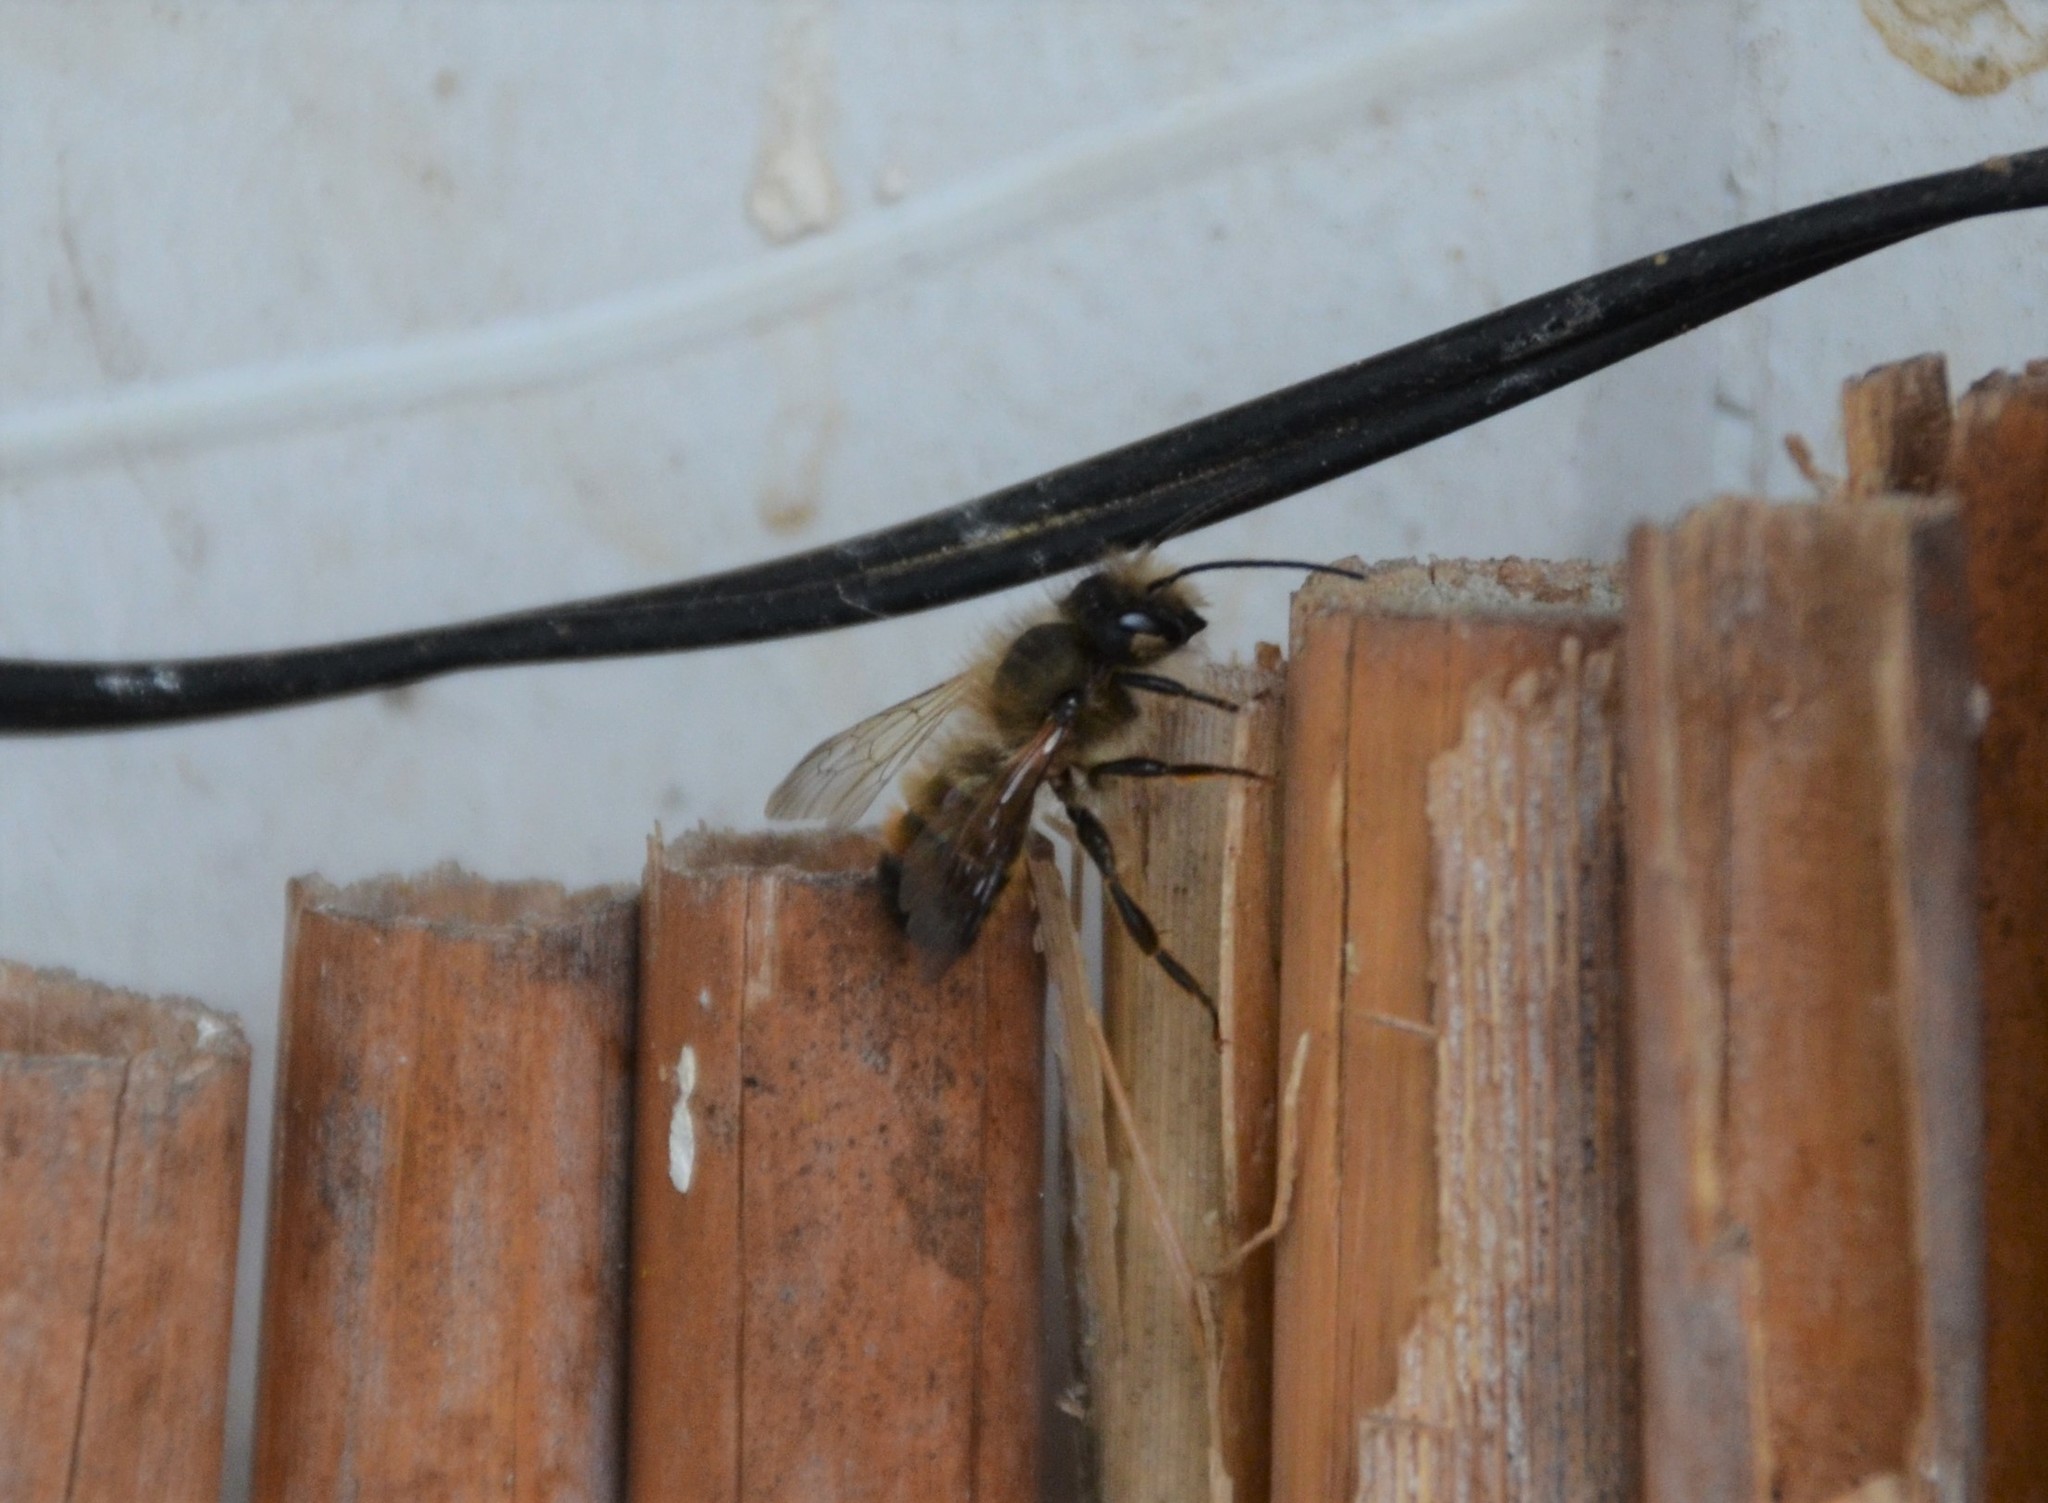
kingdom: Animalia
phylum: Arthropoda
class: Insecta
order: Hymenoptera
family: Megachilidae
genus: Osmia
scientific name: Osmia bicornis
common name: Red mason bee
